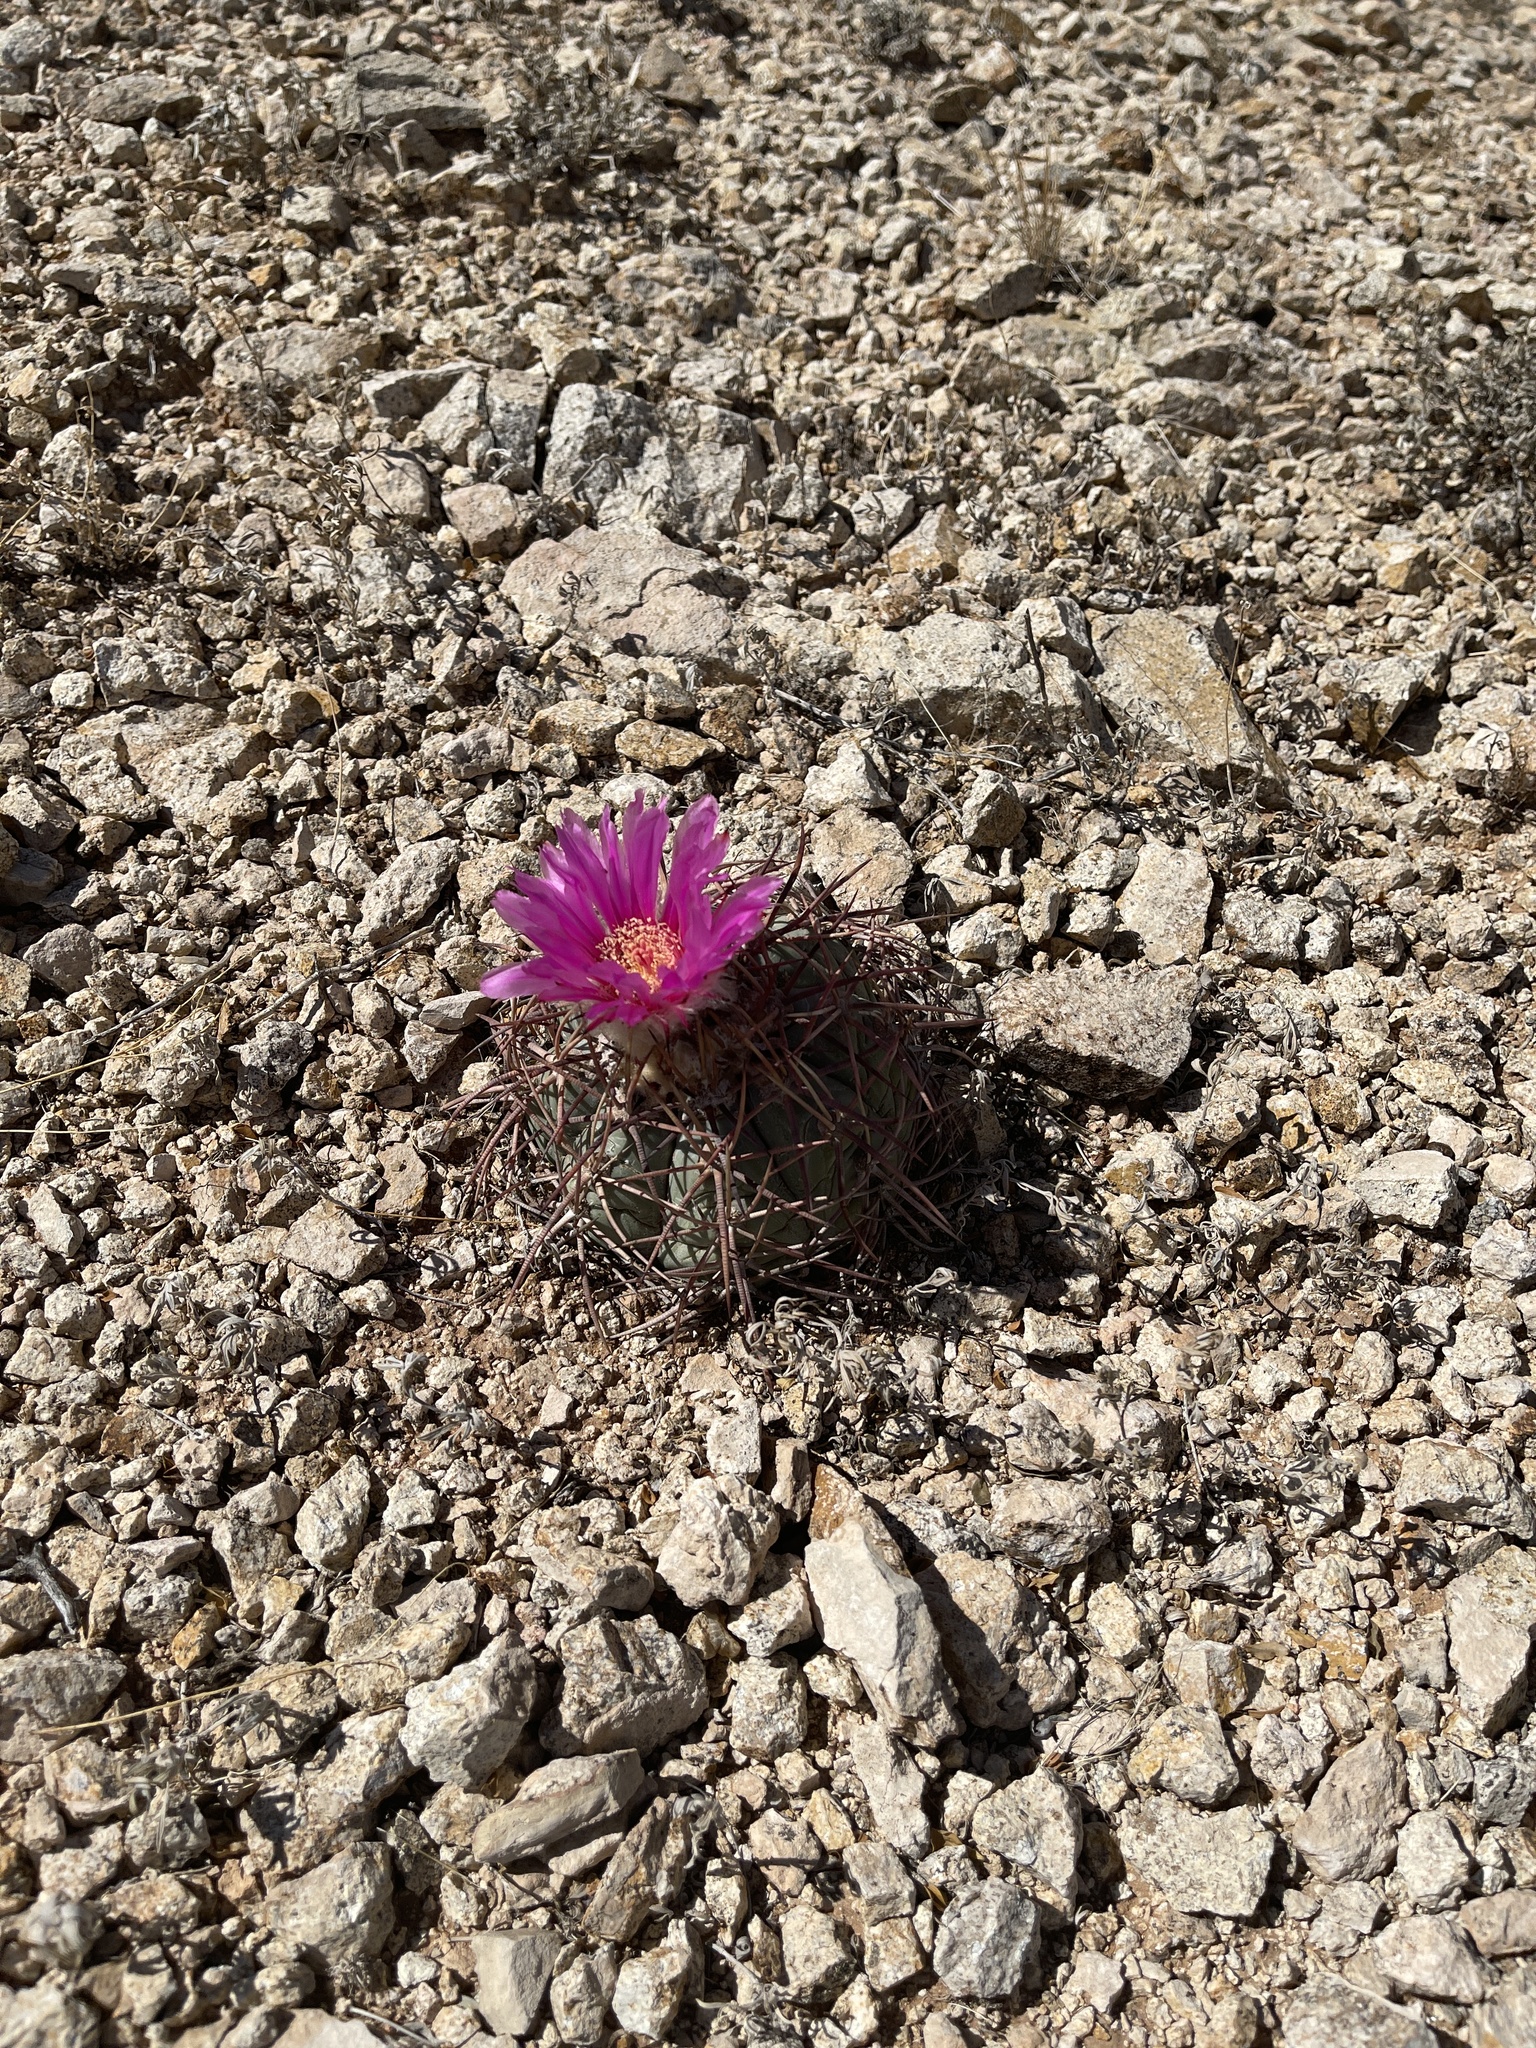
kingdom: Plantae
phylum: Tracheophyta
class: Magnoliopsida
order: Caryophyllales
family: Cactaceae
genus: Echinocactus
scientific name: Echinocactus horizonthalonius
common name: Devilshead
